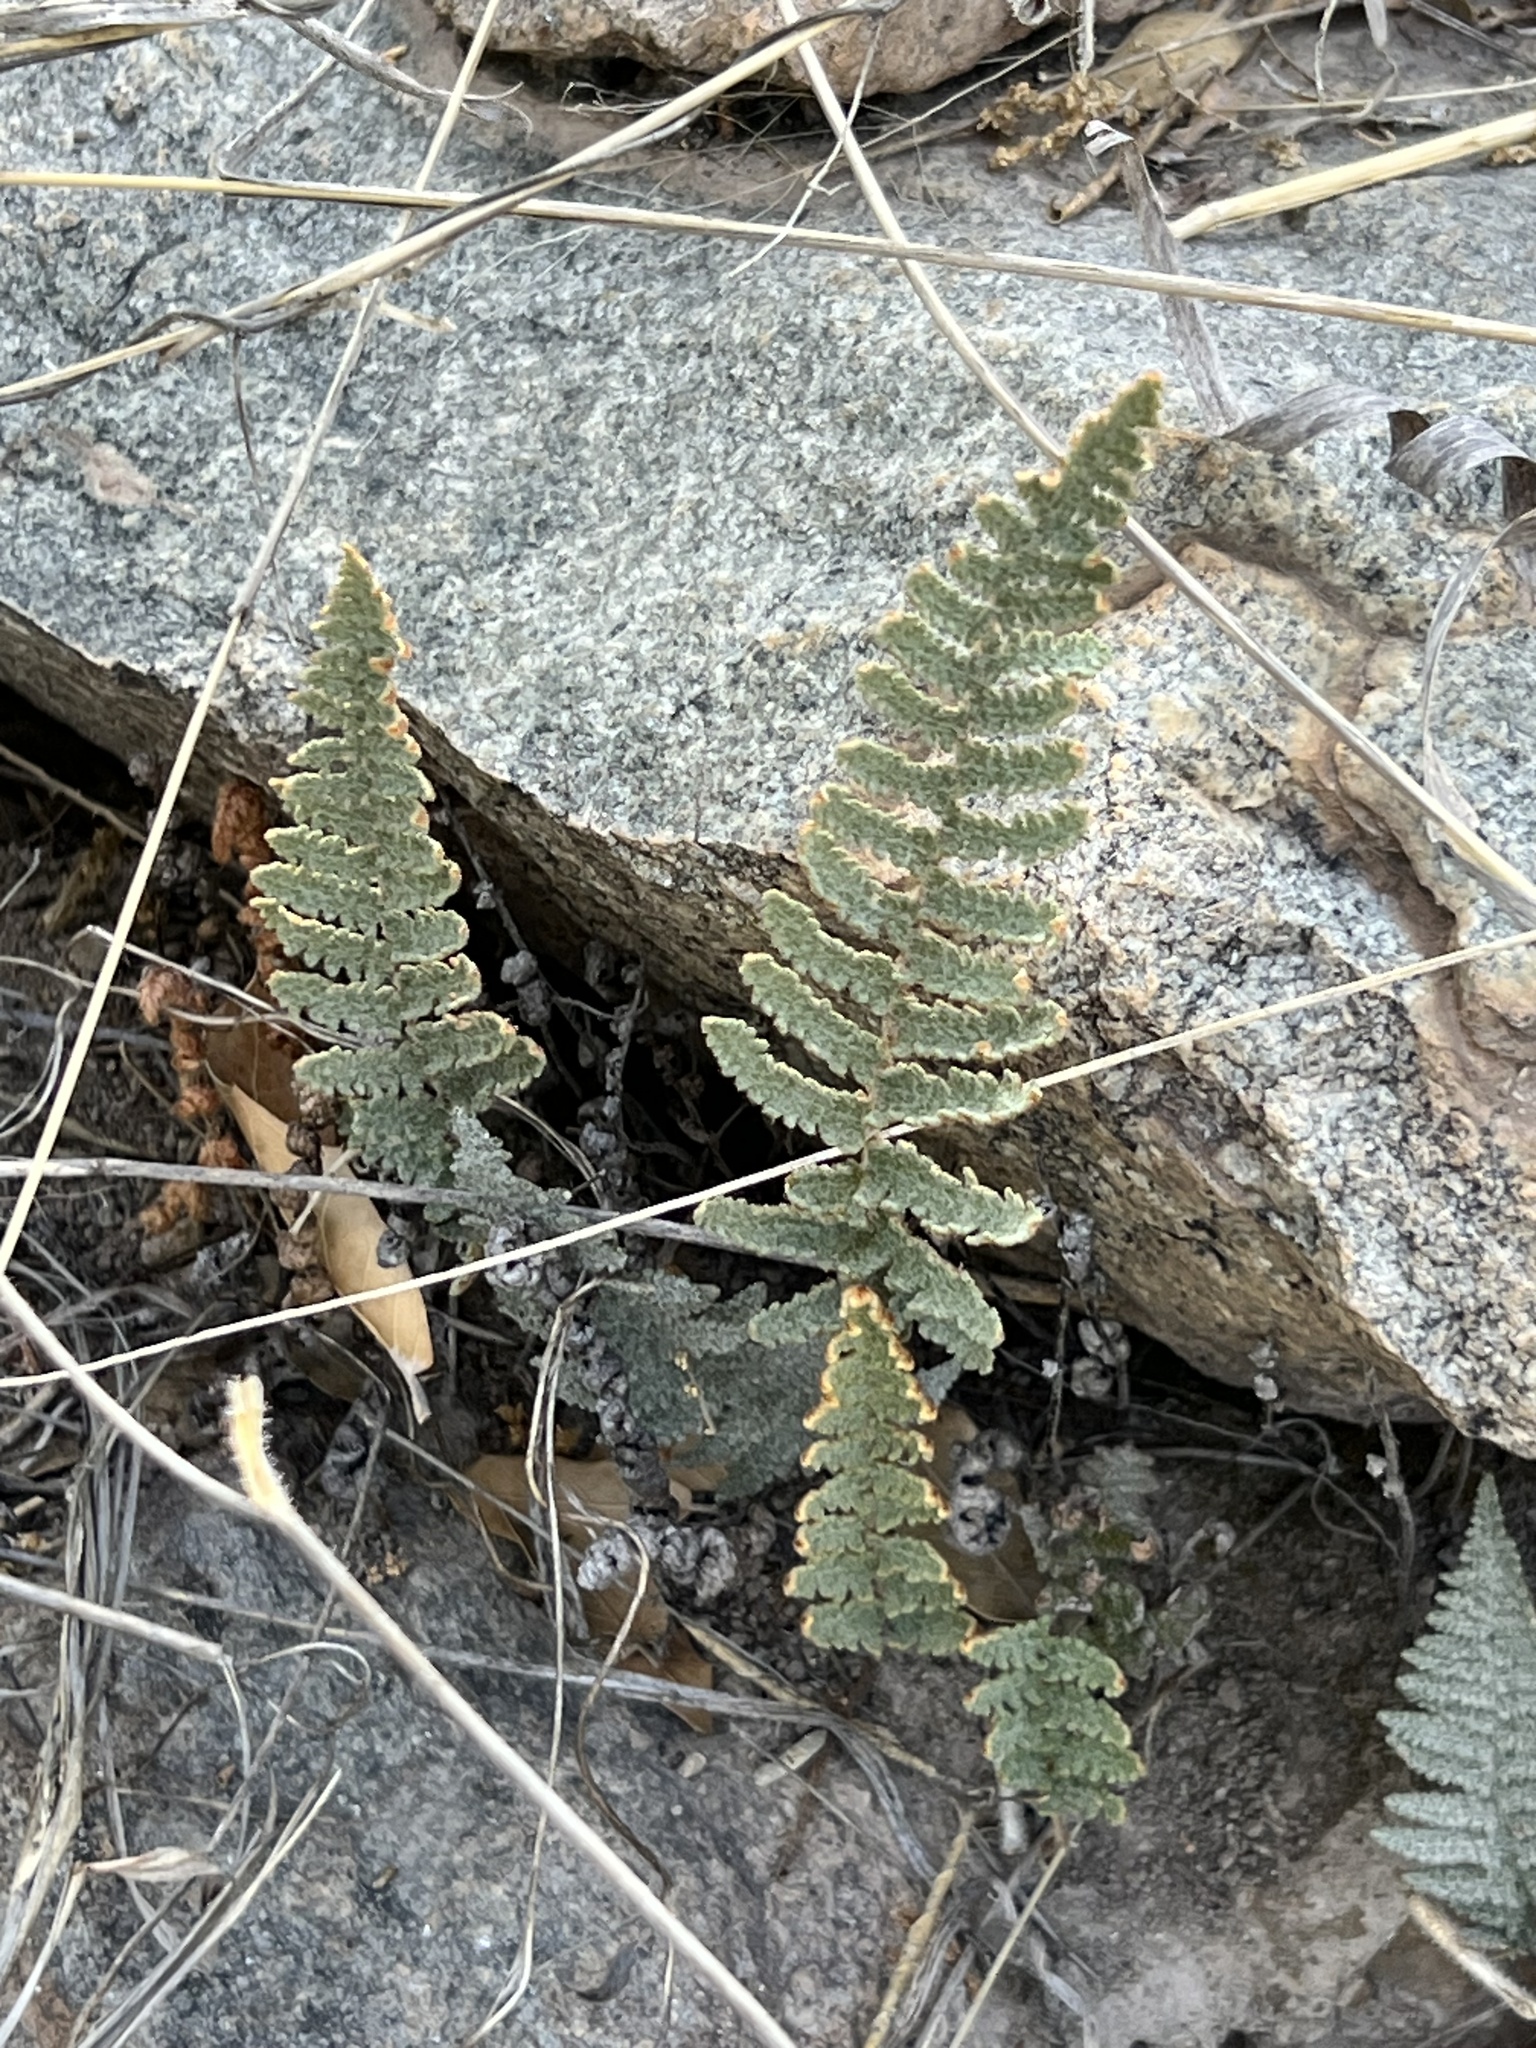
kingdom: Plantae
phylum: Tracheophyta
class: Polypodiopsida
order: Polypodiales
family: Pteridaceae
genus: Myriopteris
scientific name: Myriopteris lindheimeri
